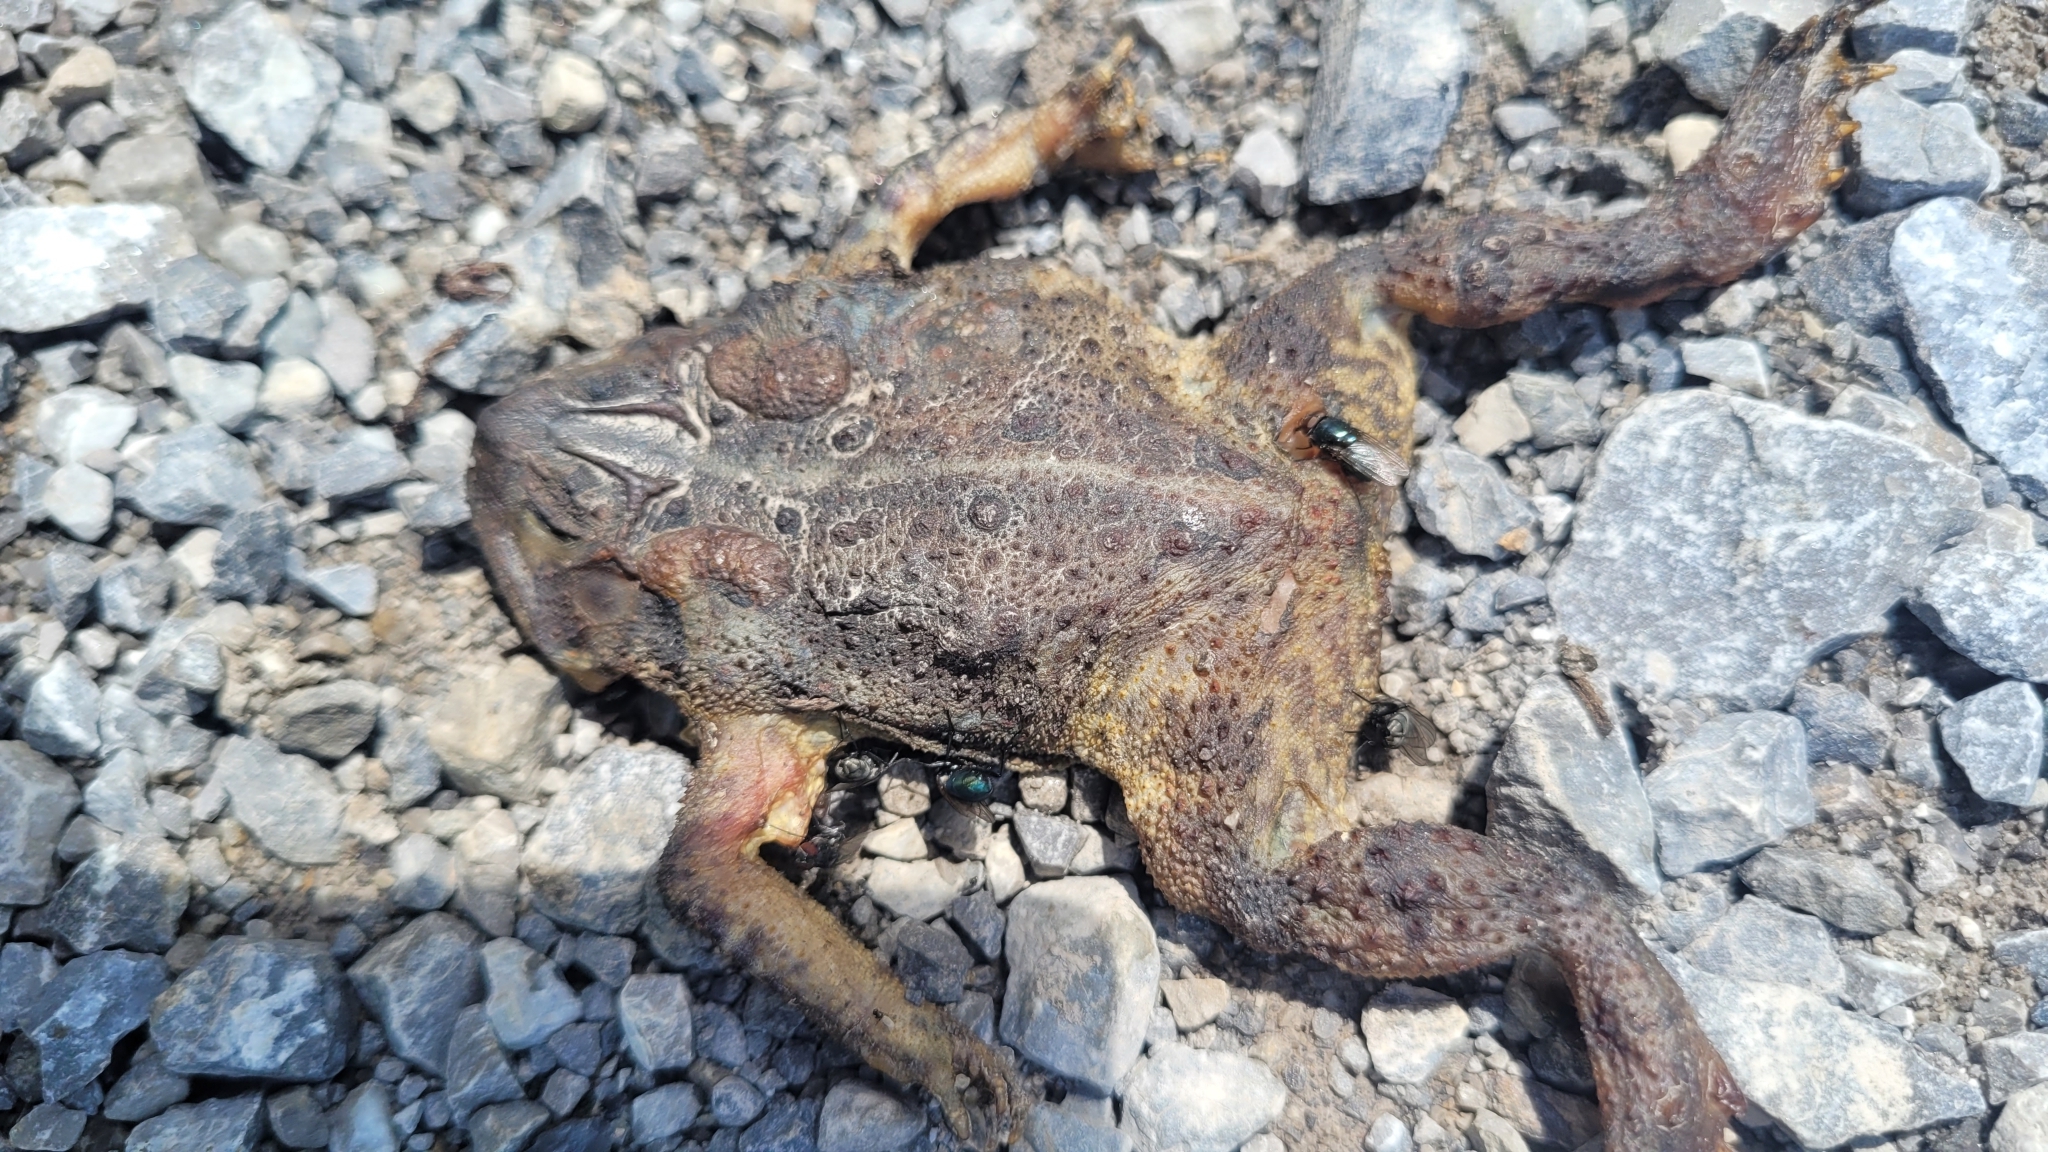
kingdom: Animalia
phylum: Chordata
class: Amphibia
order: Anura
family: Bufonidae
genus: Anaxyrus
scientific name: Anaxyrus americanus
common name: American toad
